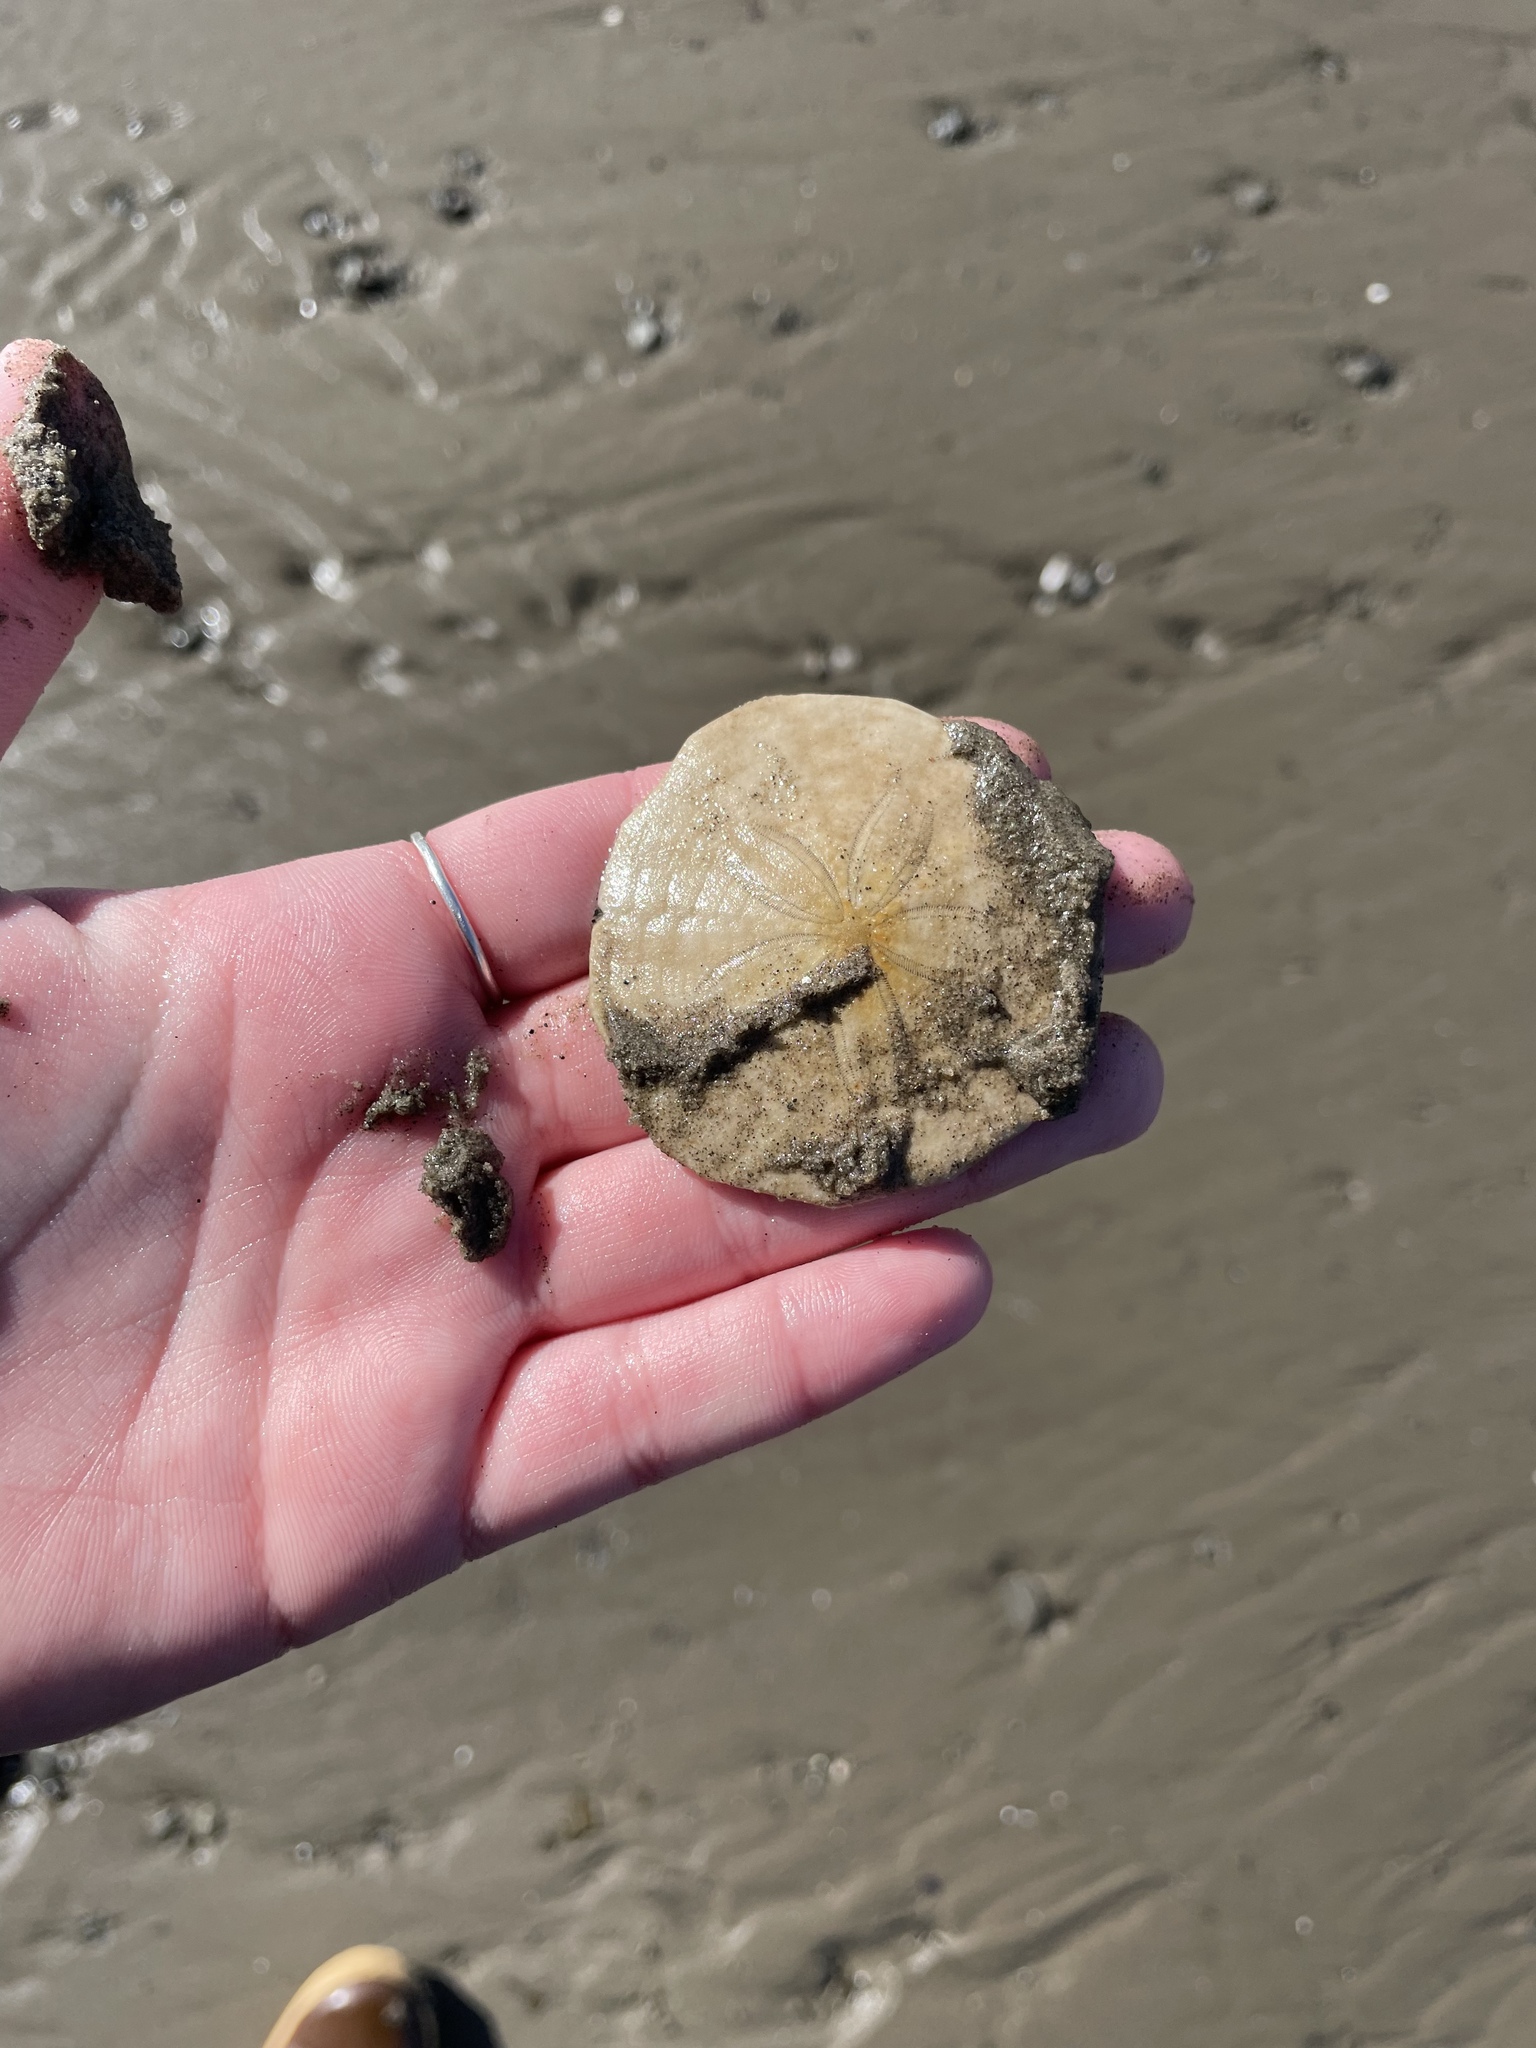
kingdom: Animalia
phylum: Echinodermata
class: Echinoidea
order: Echinolampadacea
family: Echinarachniidae
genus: Echinarachnius
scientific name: Echinarachnius parma
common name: Common sand dollar
